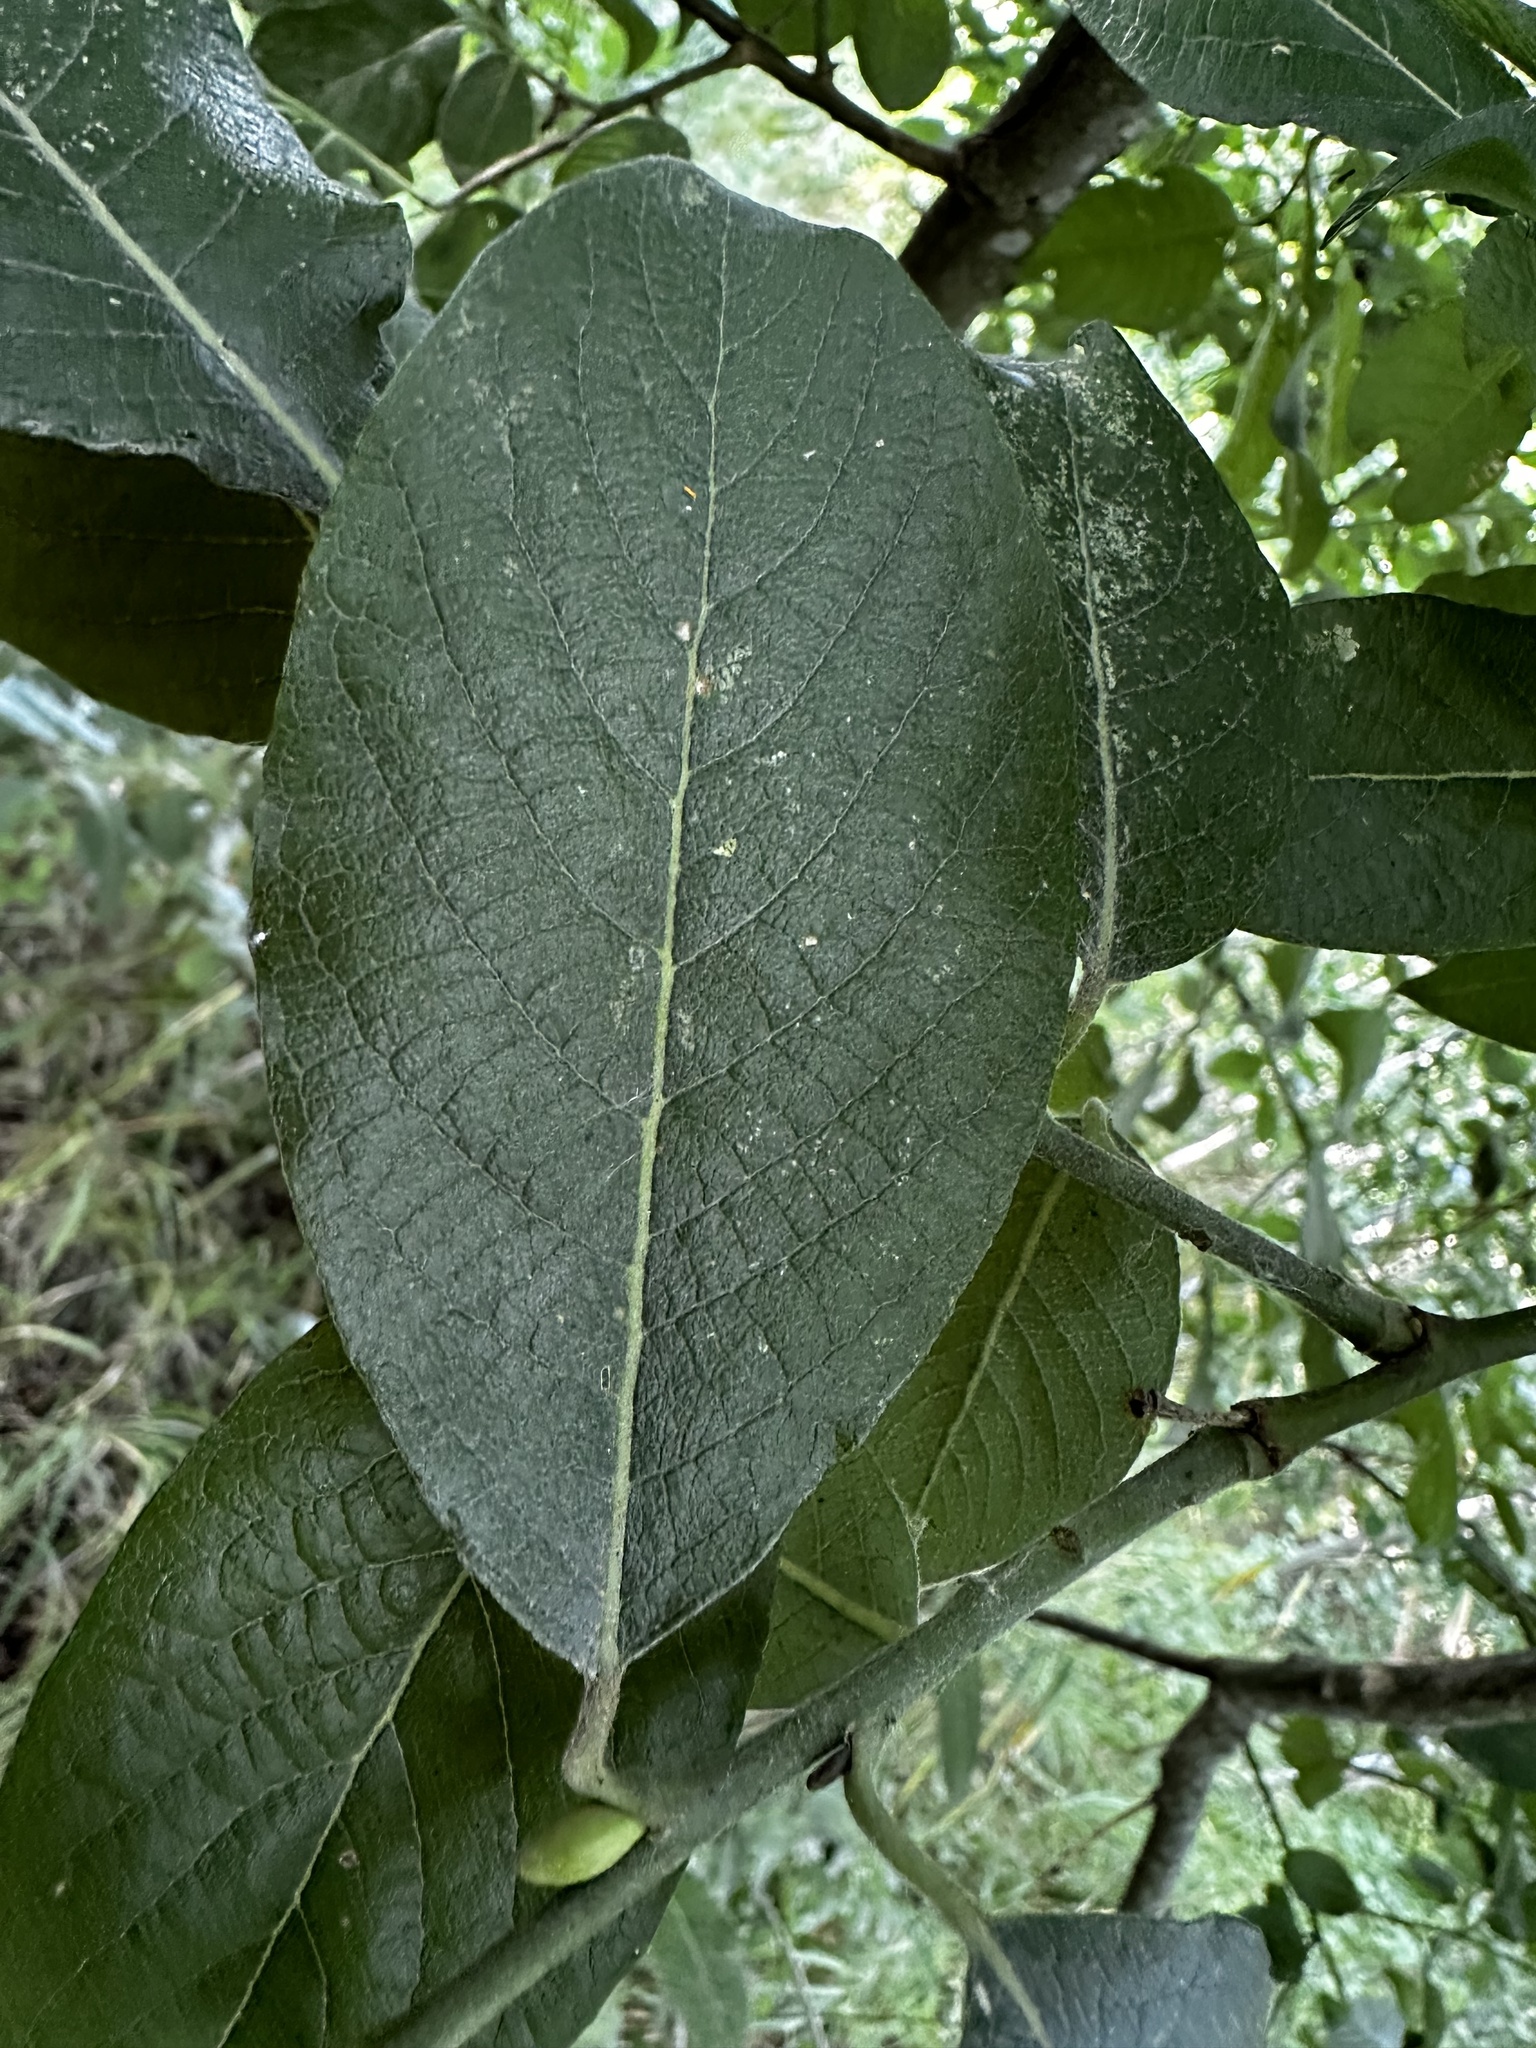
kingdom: Plantae
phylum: Tracheophyta
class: Magnoliopsida
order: Malpighiales
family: Salicaceae
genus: Salix
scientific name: Salix caprea
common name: Goat willow
